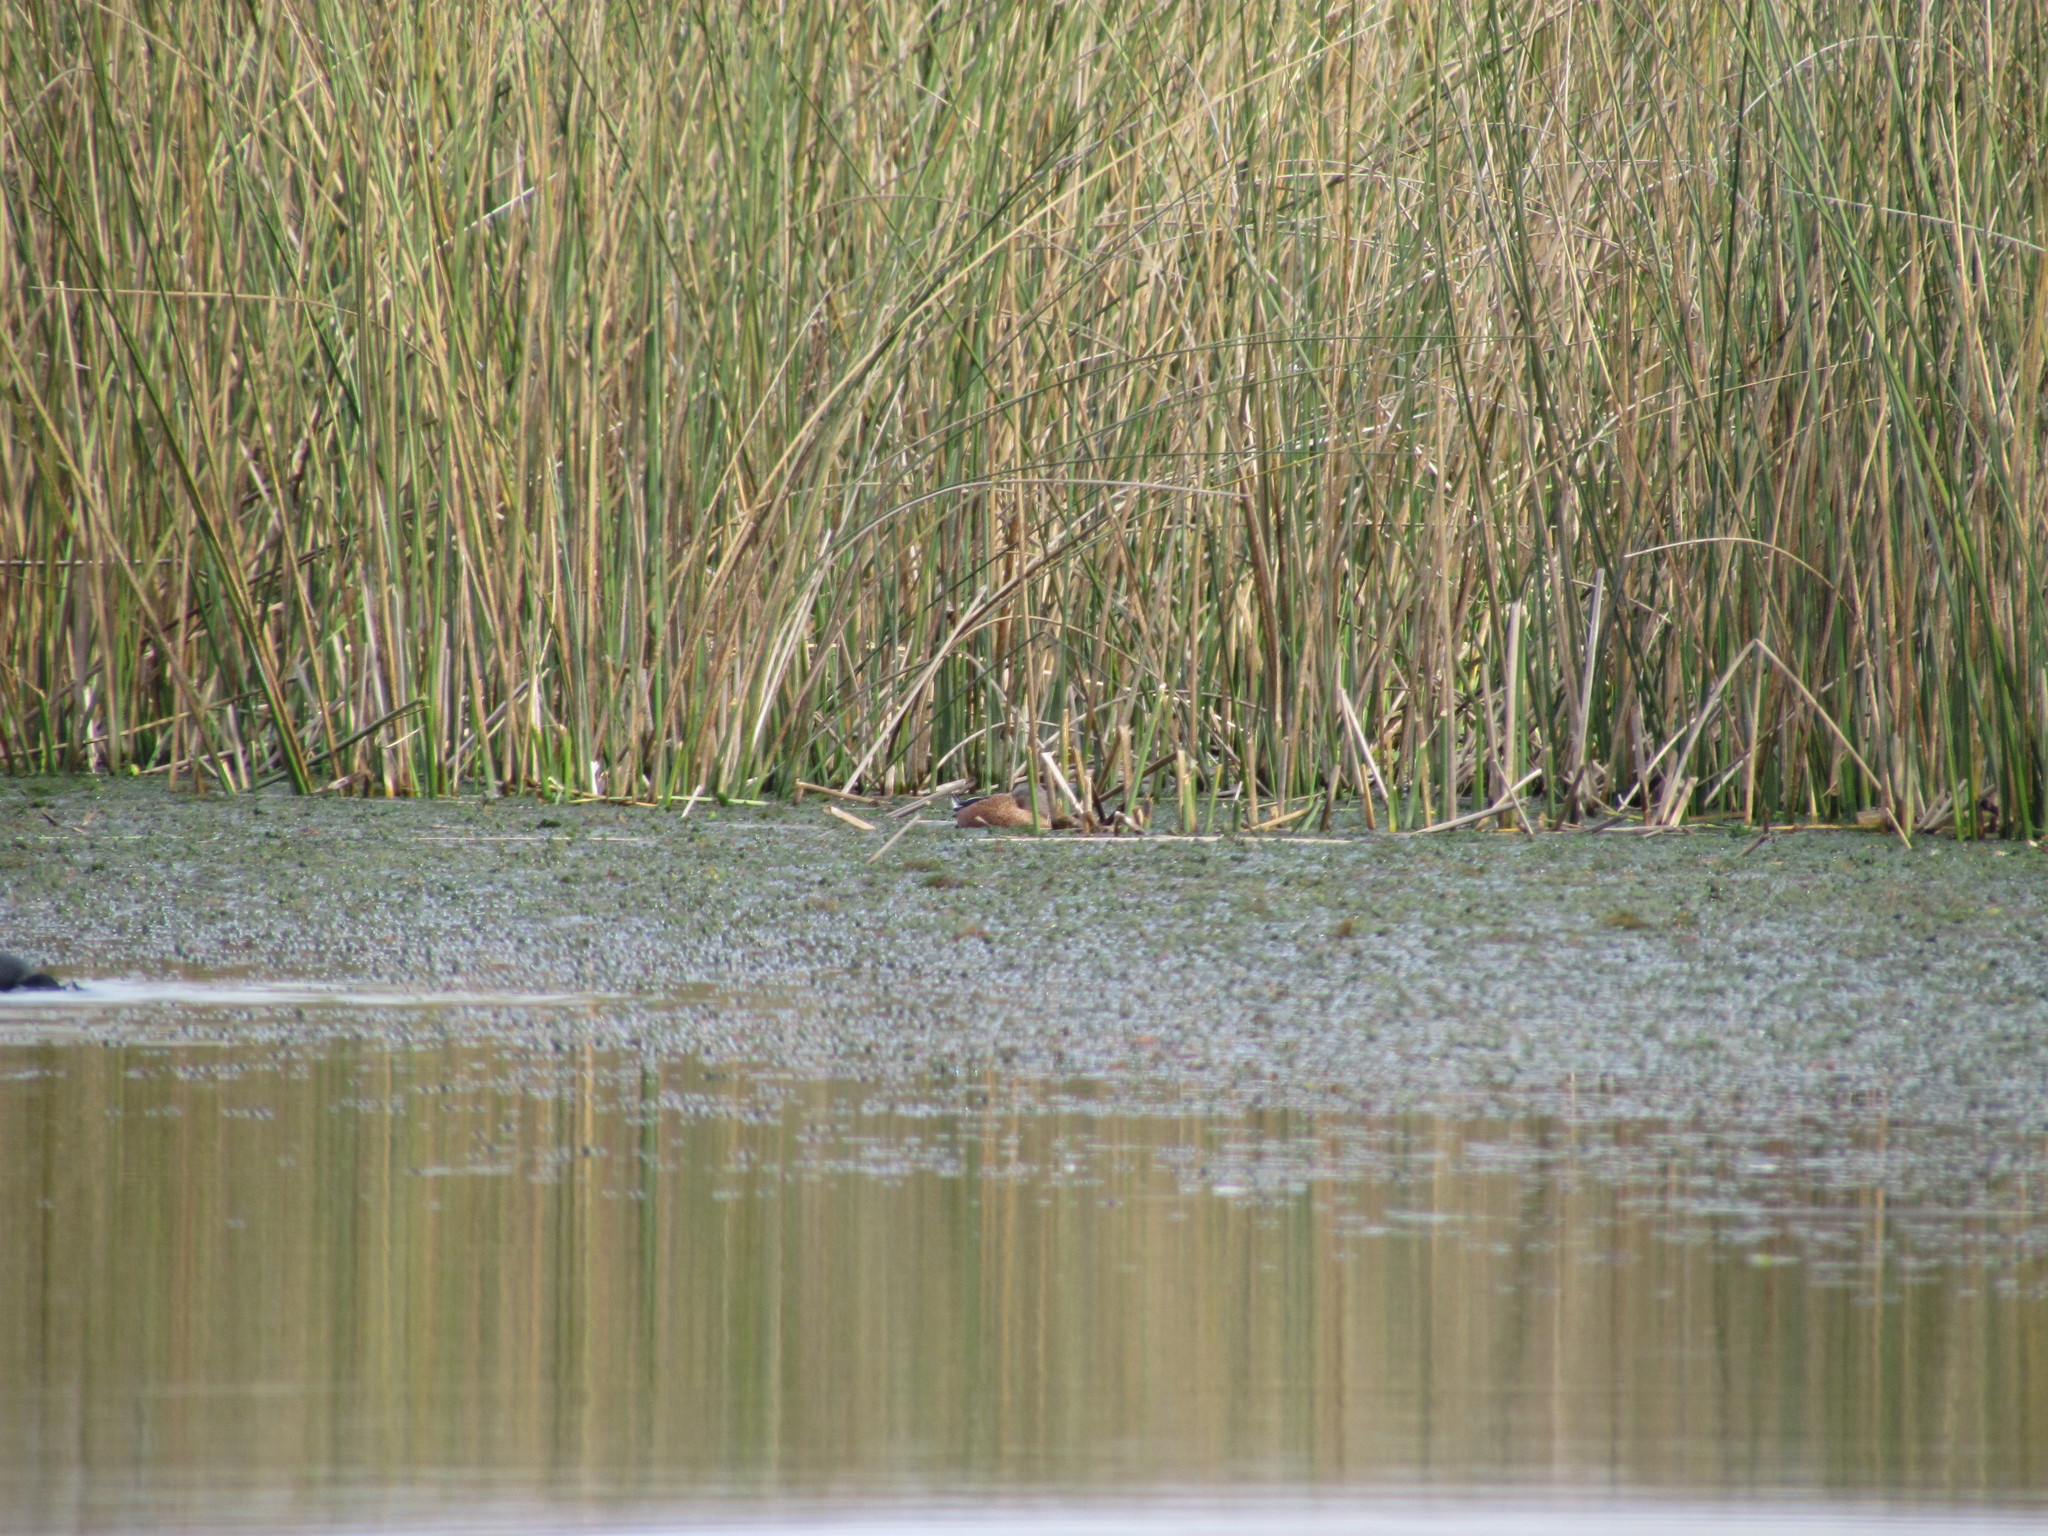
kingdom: Animalia
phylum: Chordata
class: Aves
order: Anseriformes
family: Anatidae
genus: Spatula
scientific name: Spatula platalea
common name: Red shoveler
